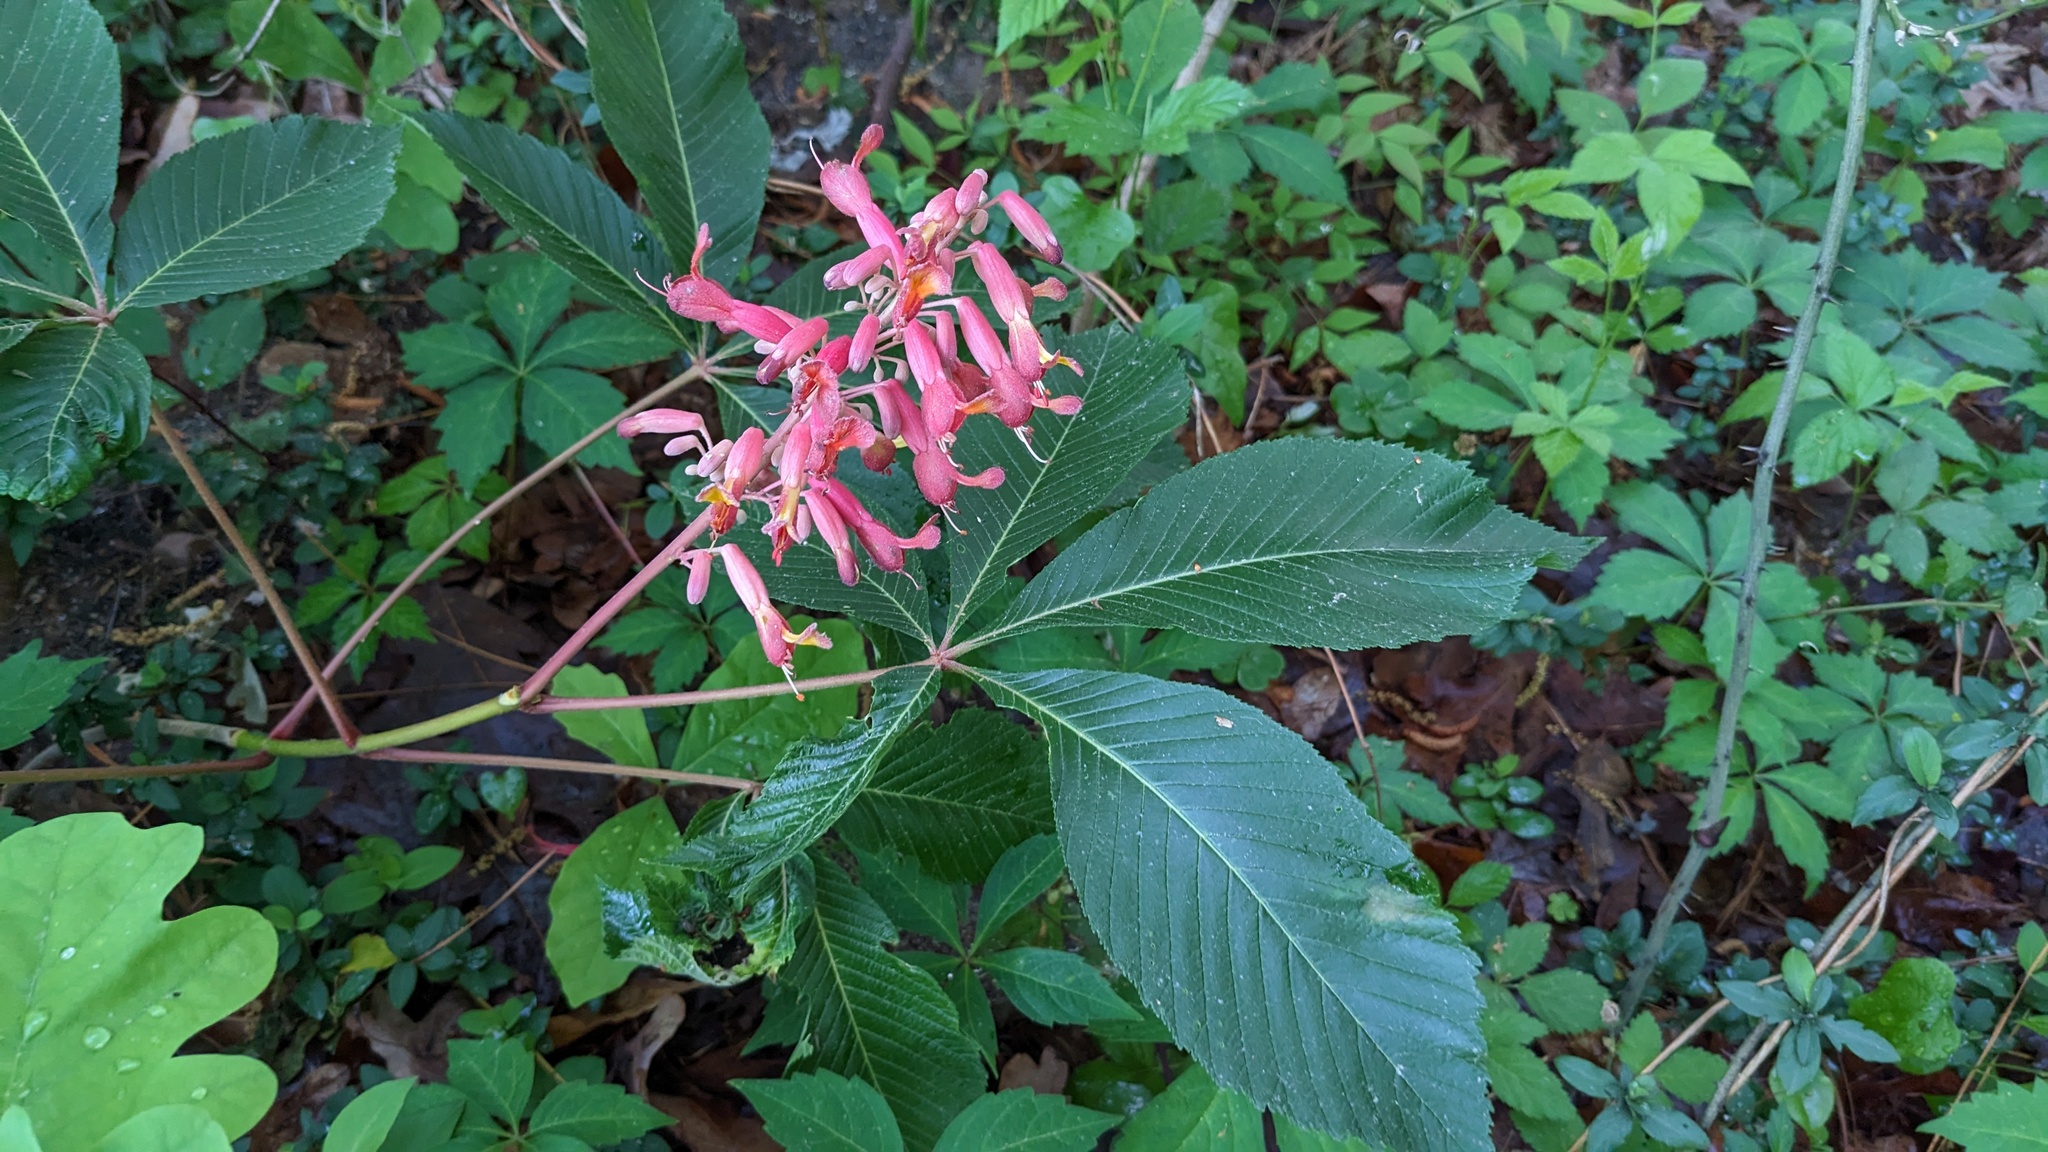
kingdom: Plantae
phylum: Tracheophyta
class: Magnoliopsida
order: Sapindales
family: Sapindaceae
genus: Aesculus
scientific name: Aesculus pavia
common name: Red buckeye
